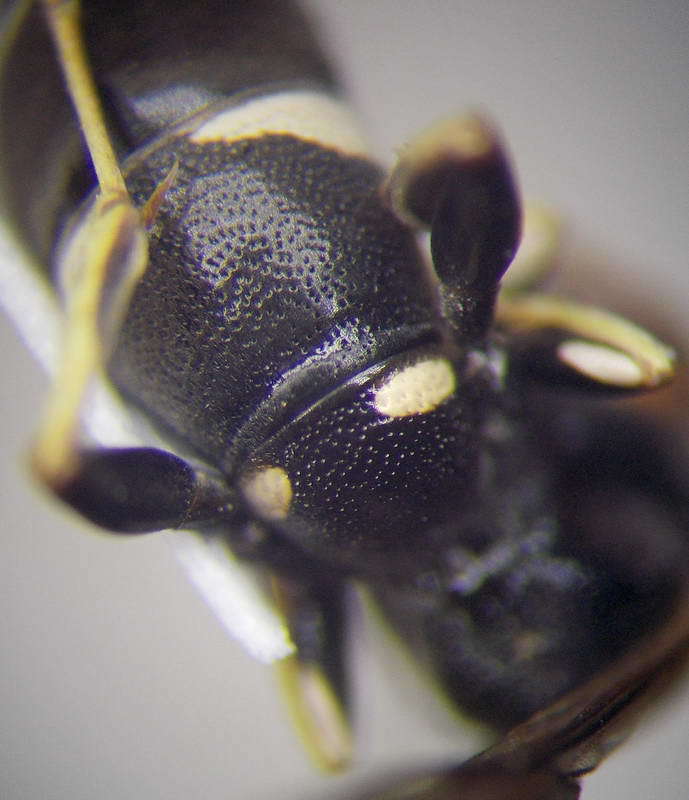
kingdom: Animalia
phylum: Arthropoda
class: Insecta
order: Hymenoptera
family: Crabronidae
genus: Ammatomus
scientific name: Ammatomus rogenhoferi
